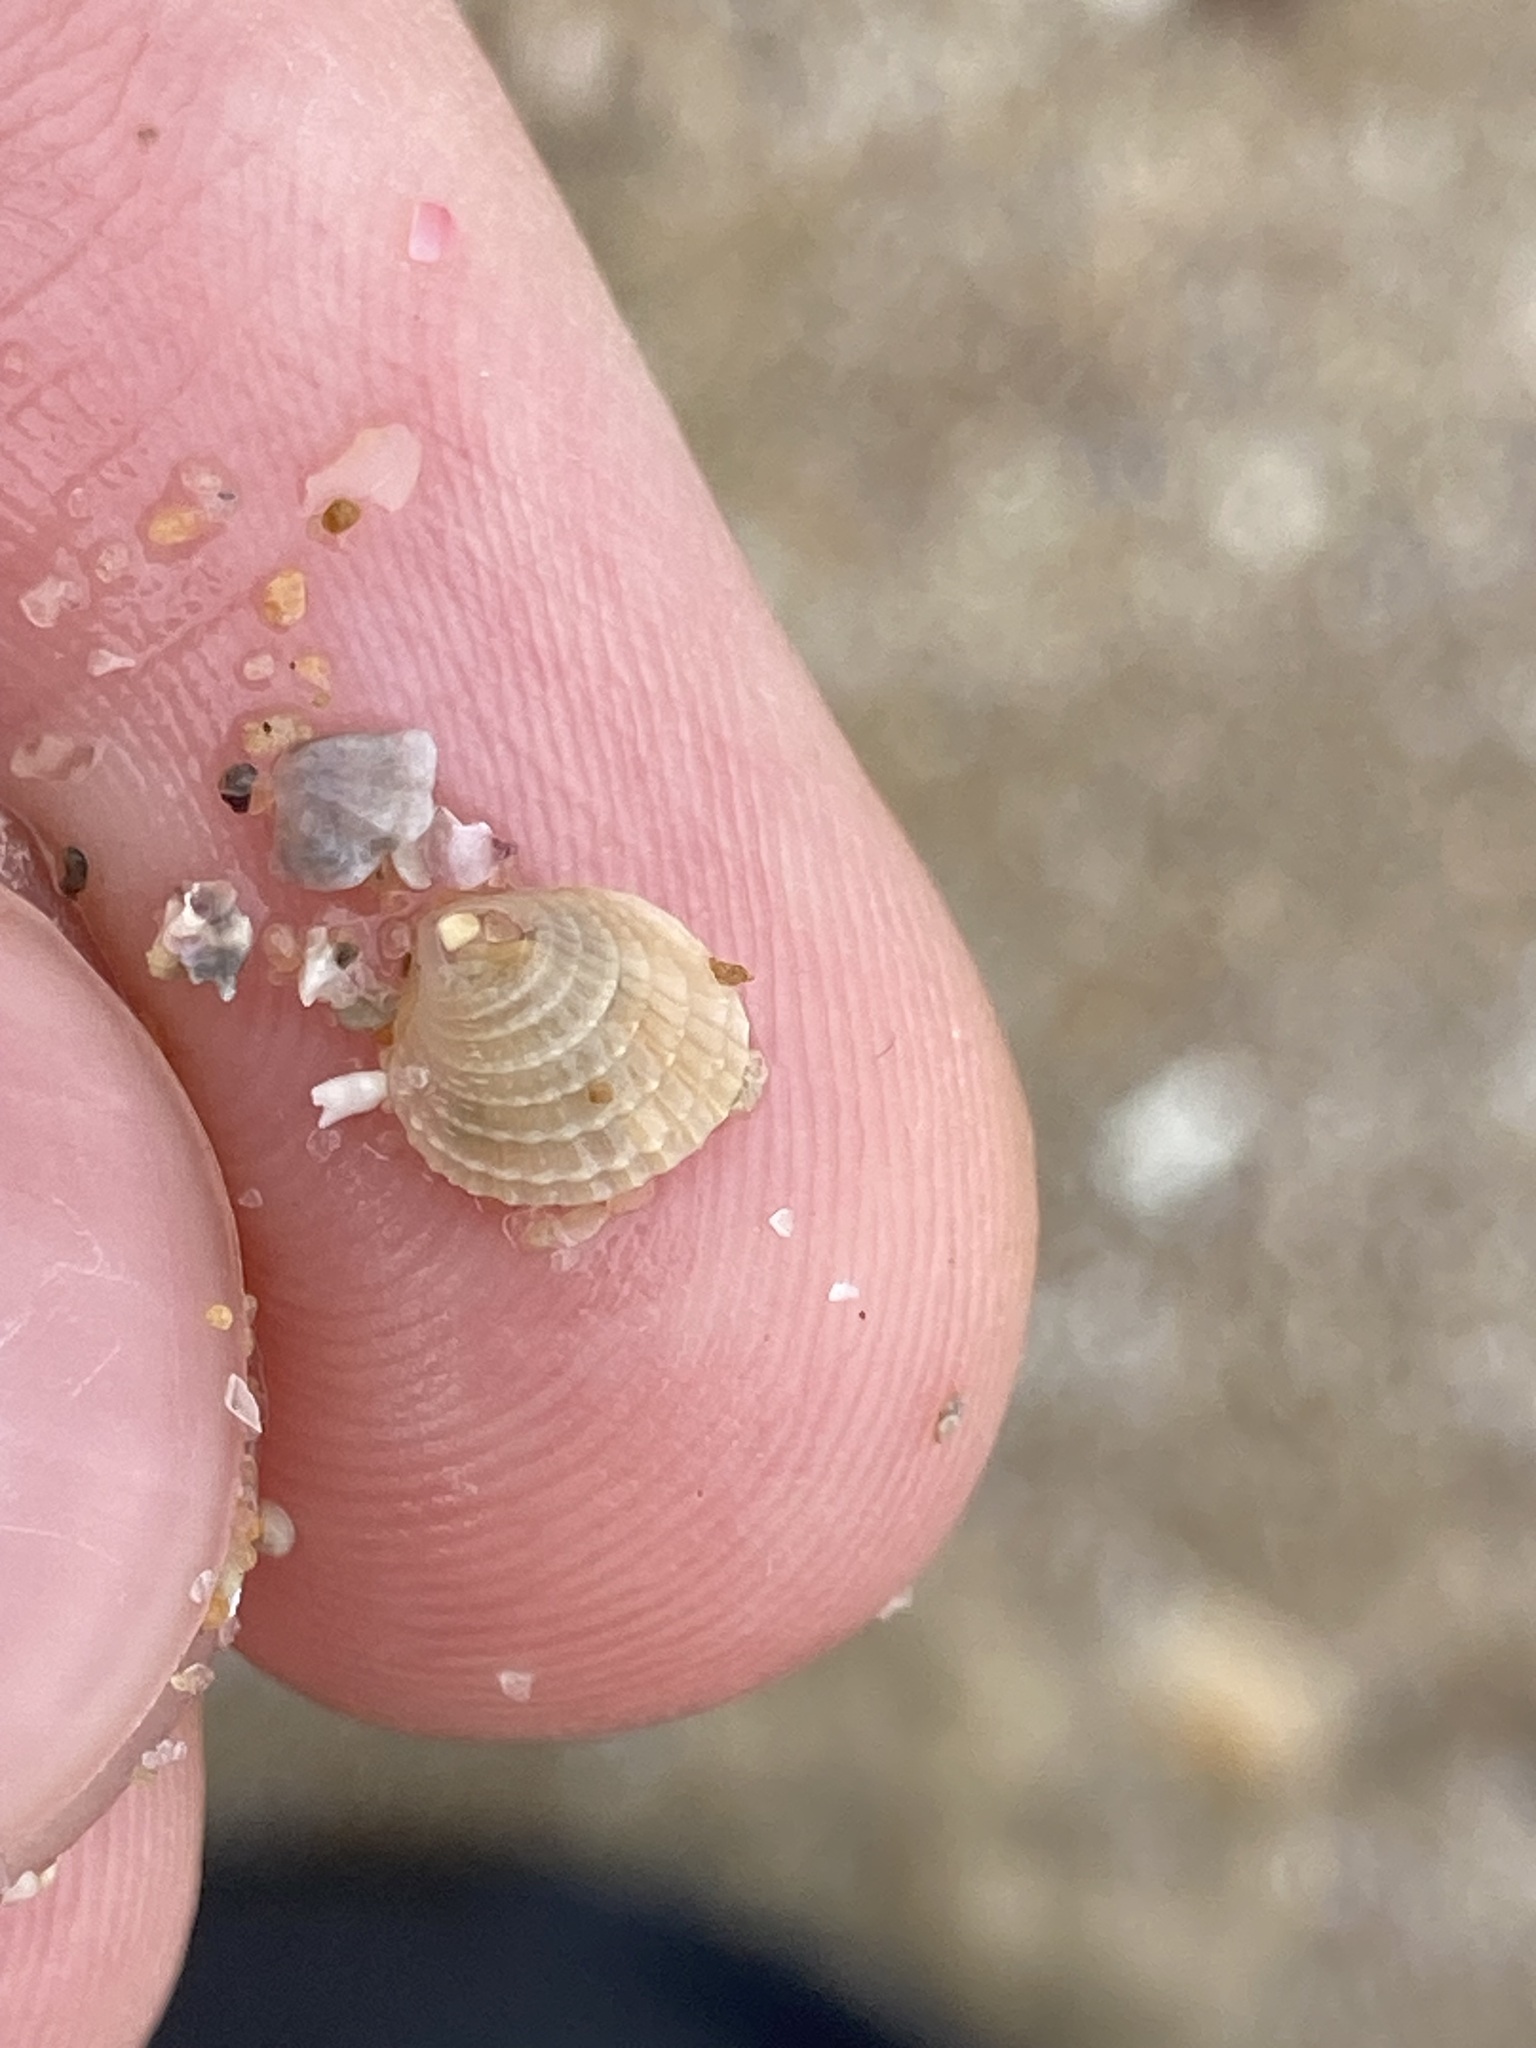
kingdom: Animalia
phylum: Mollusca
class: Bivalvia
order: Venerida
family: Veneridae
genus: Timoclea
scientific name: Timoclea scabra
